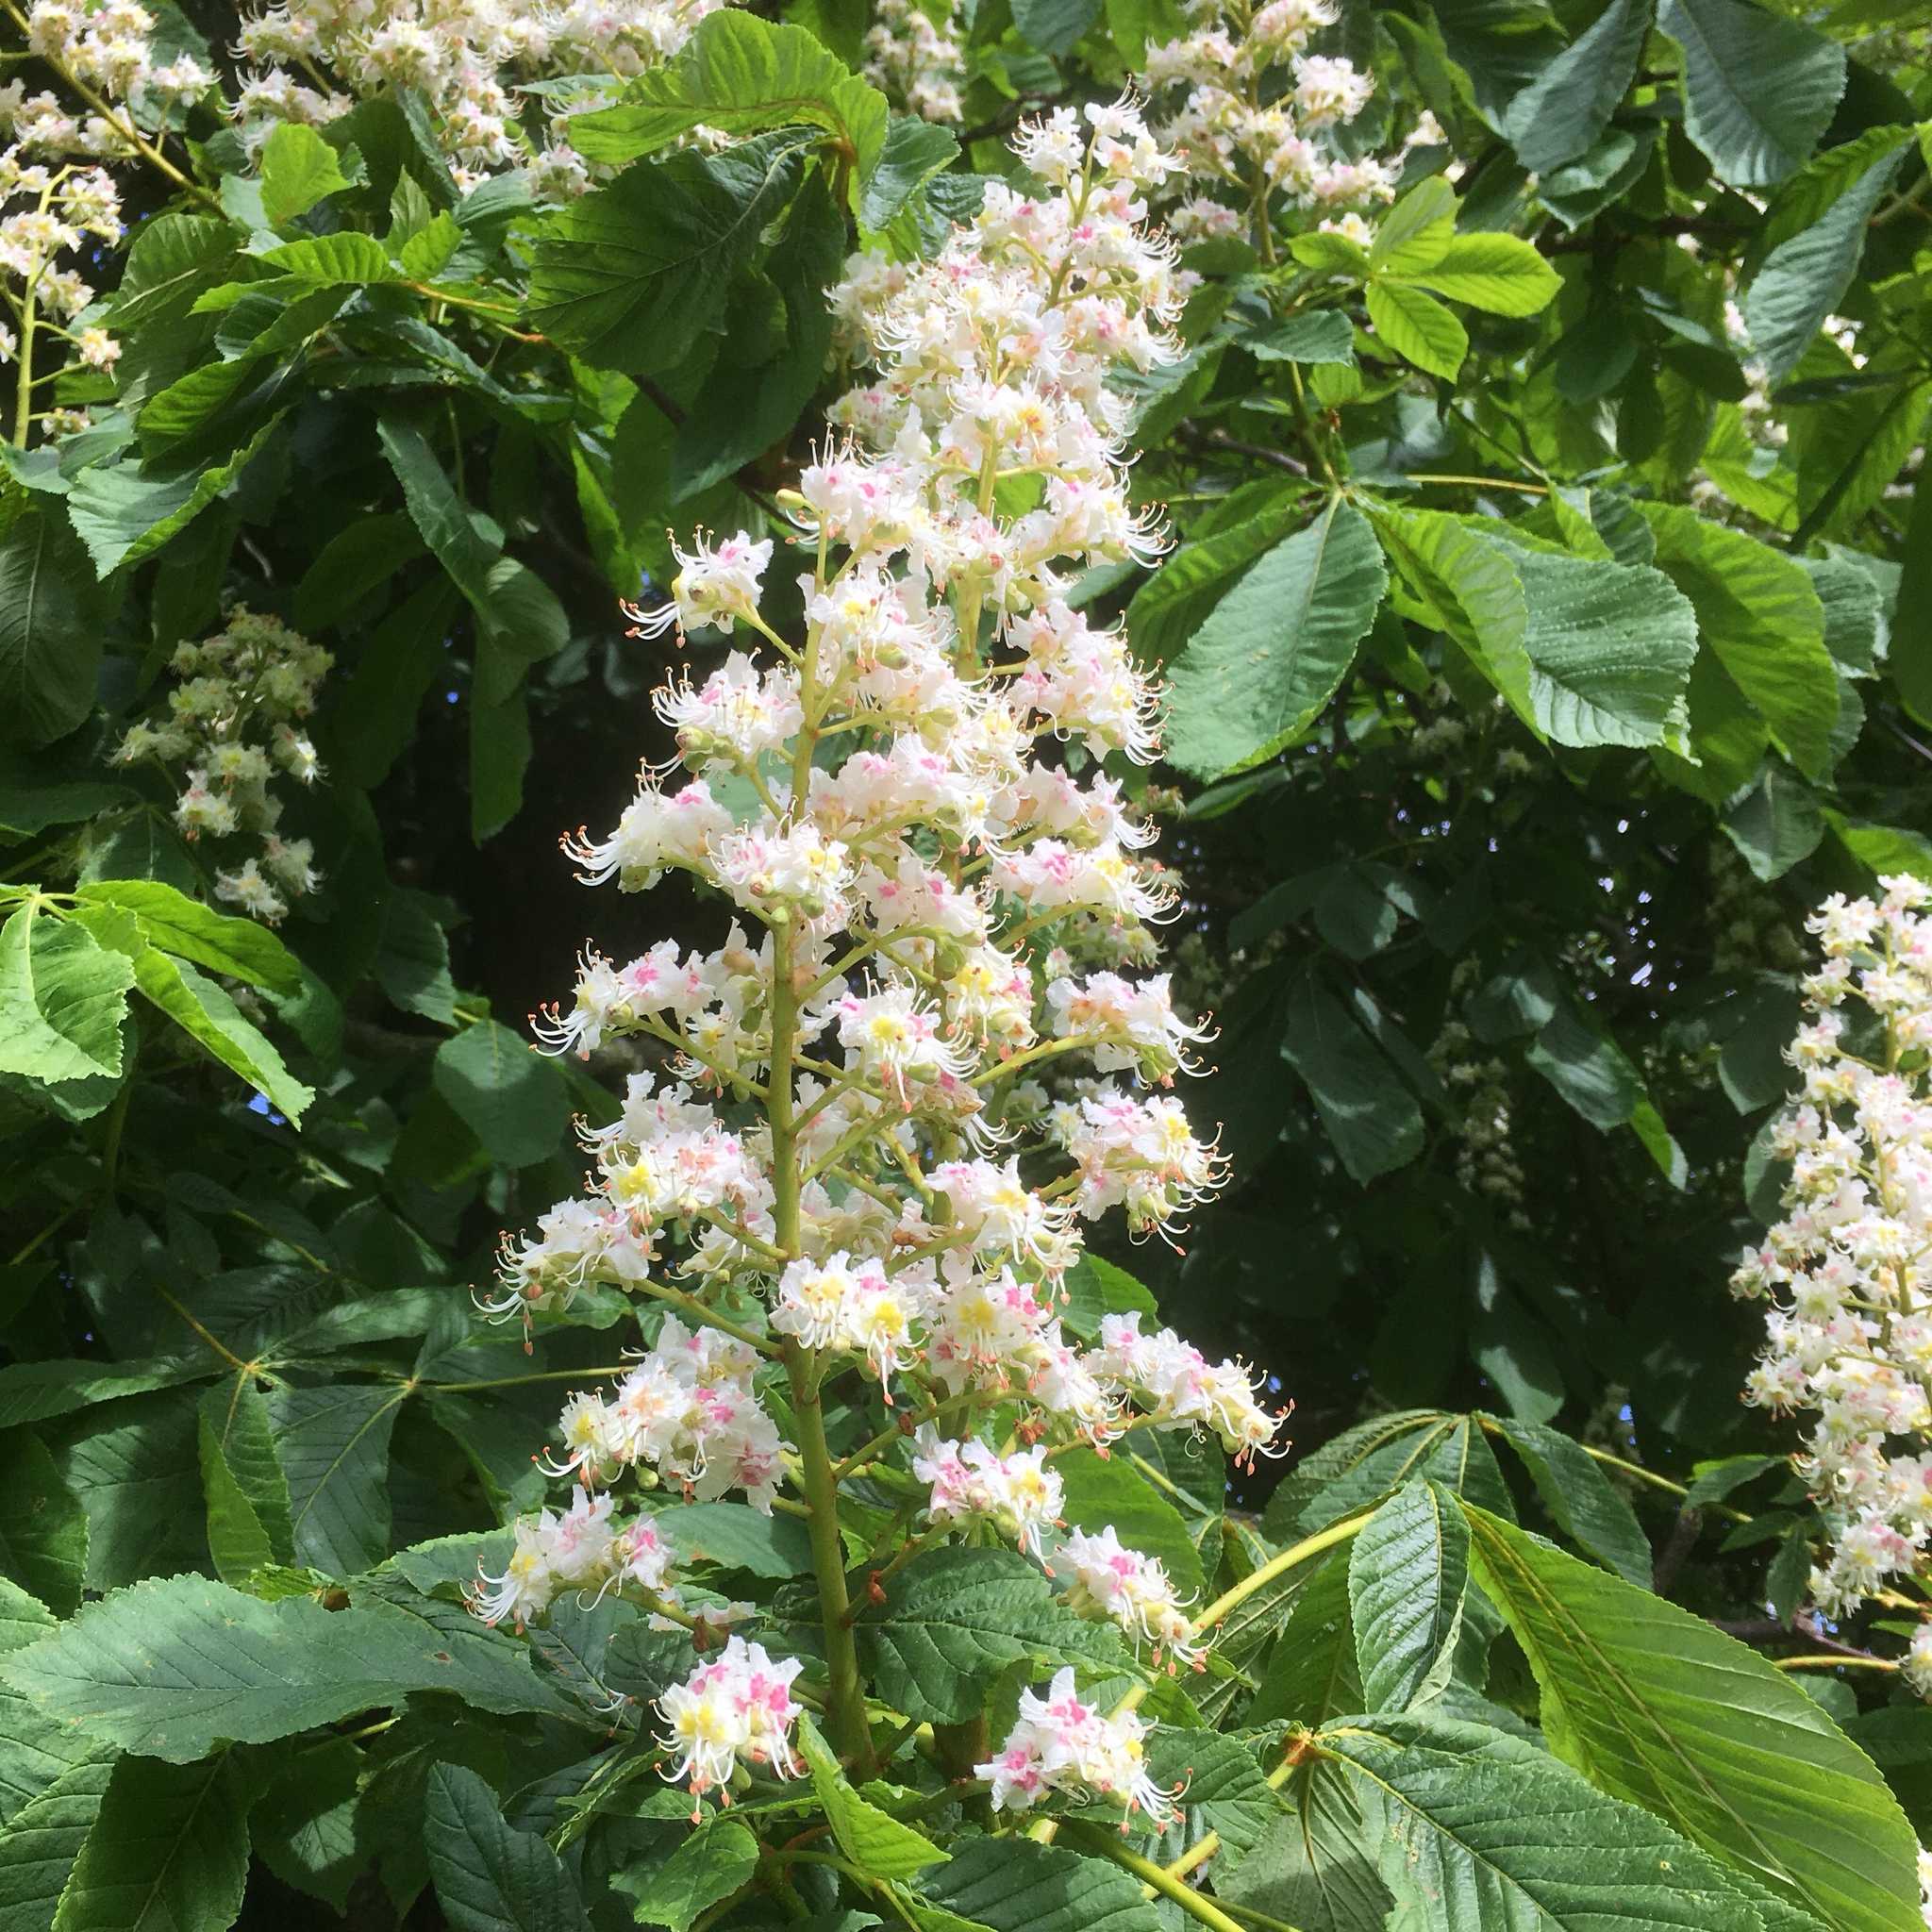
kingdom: Plantae
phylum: Tracheophyta
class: Magnoliopsida
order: Sapindales
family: Sapindaceae
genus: Aesculus
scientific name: Aesculus hippocastanum
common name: Horse-chestnut
